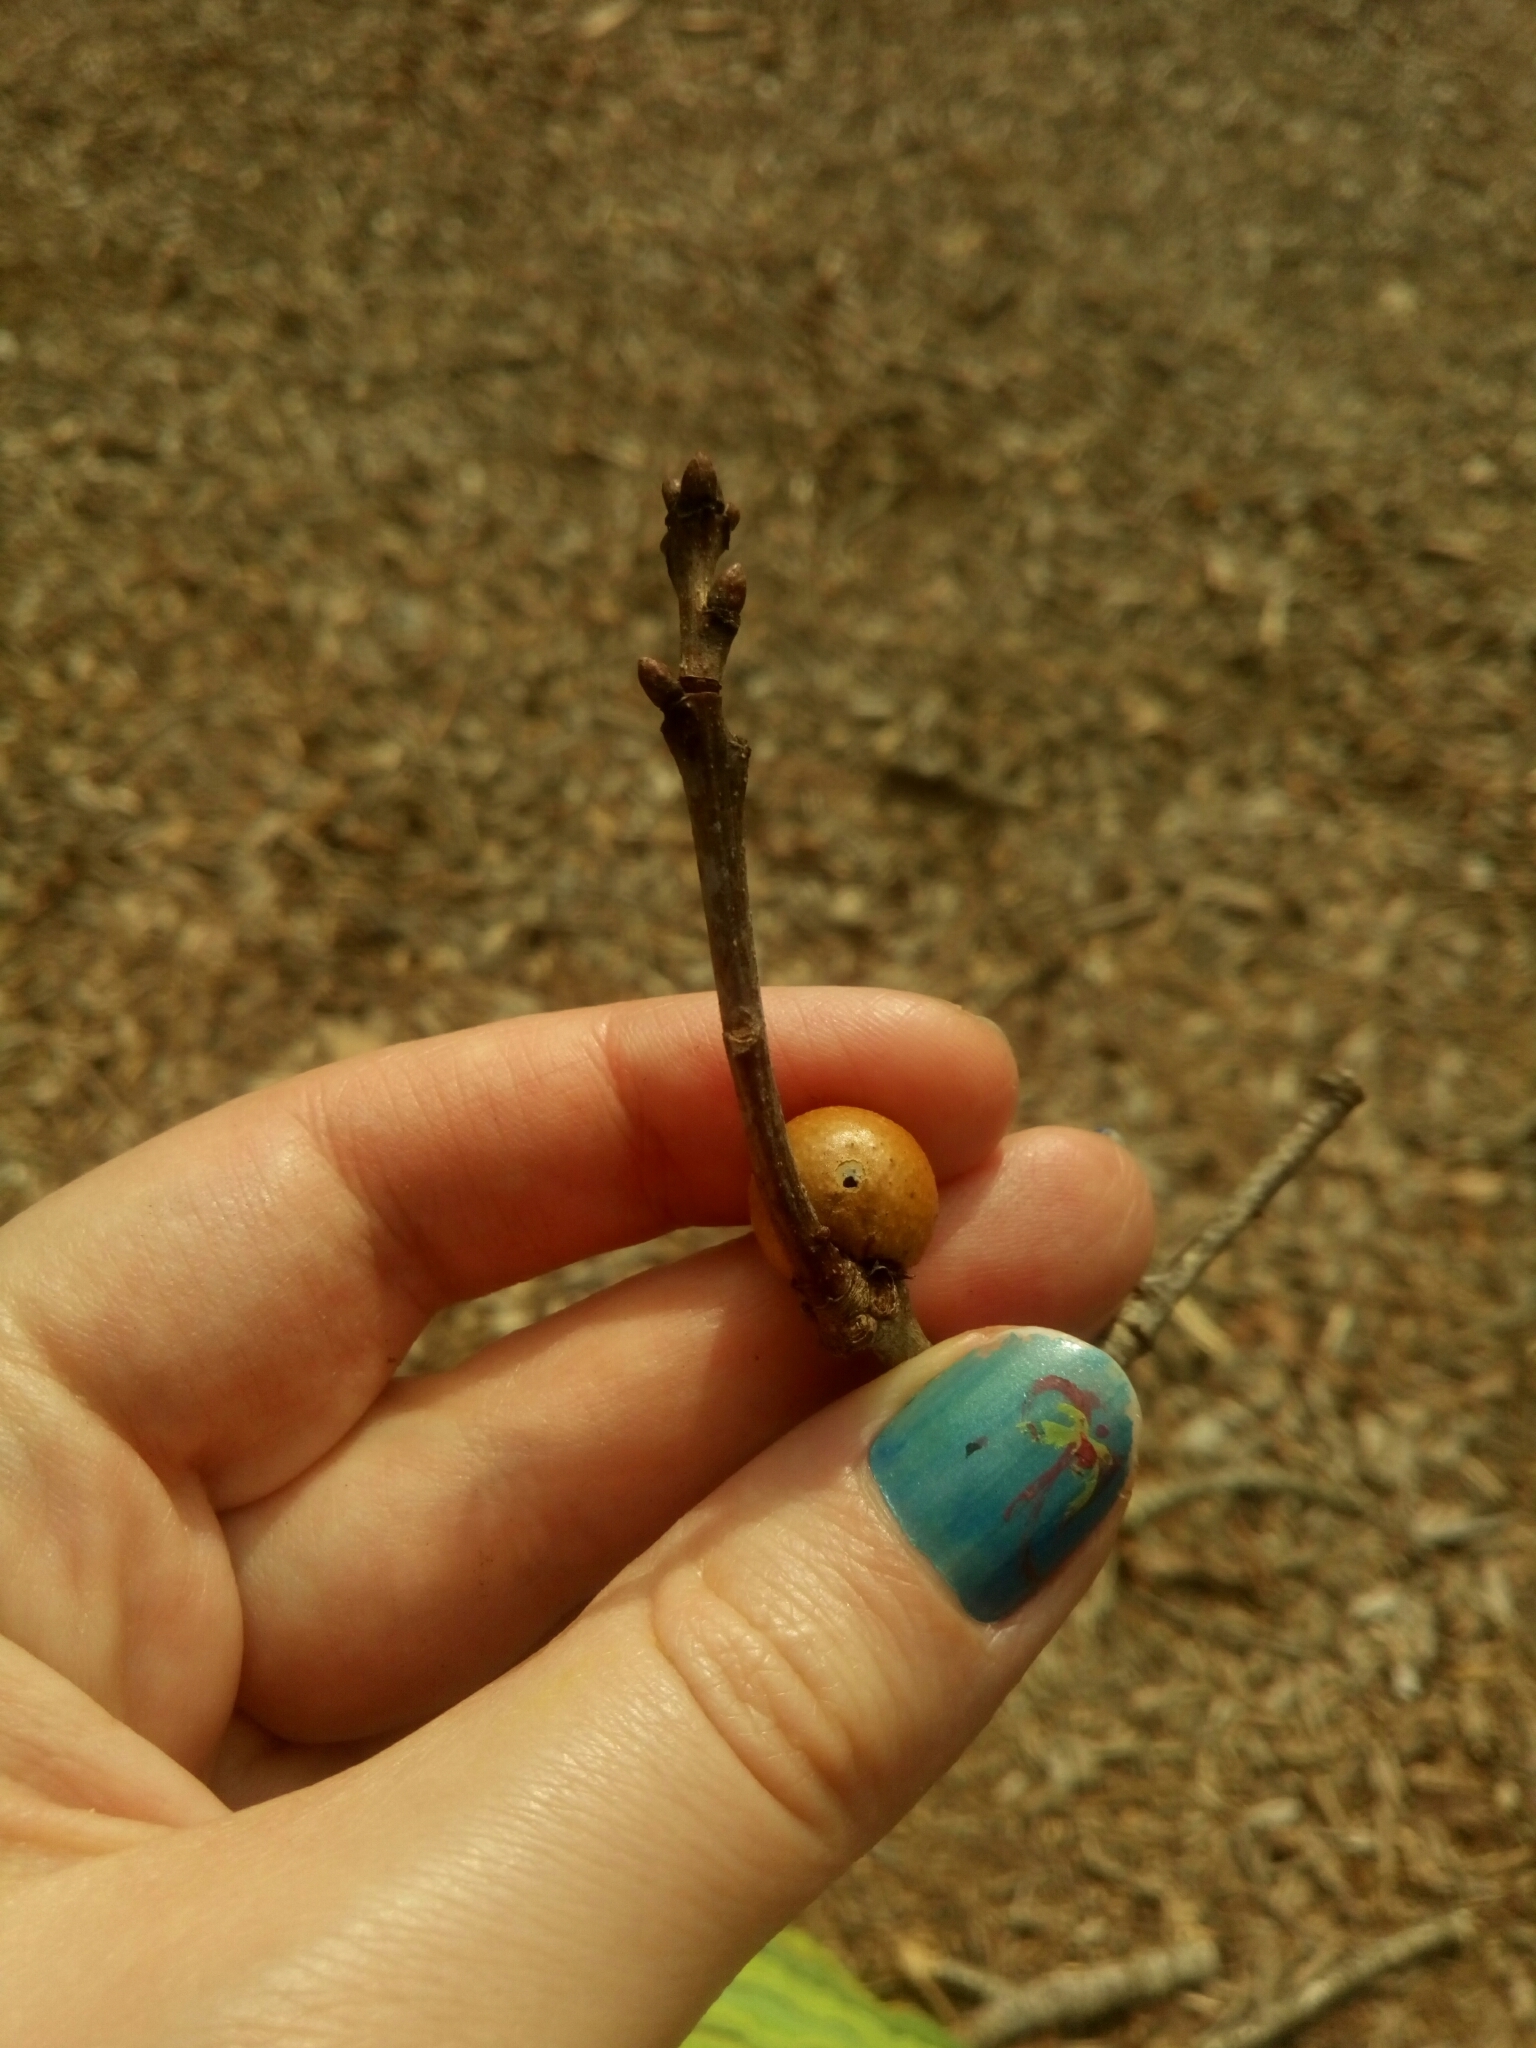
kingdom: Animalia
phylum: Arthropoda
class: Insecta
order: Hymenoptera
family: Cynipidae
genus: Disholcaspis
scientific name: Disholcaspis quercusglobulus
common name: Round bullet gall wasp
